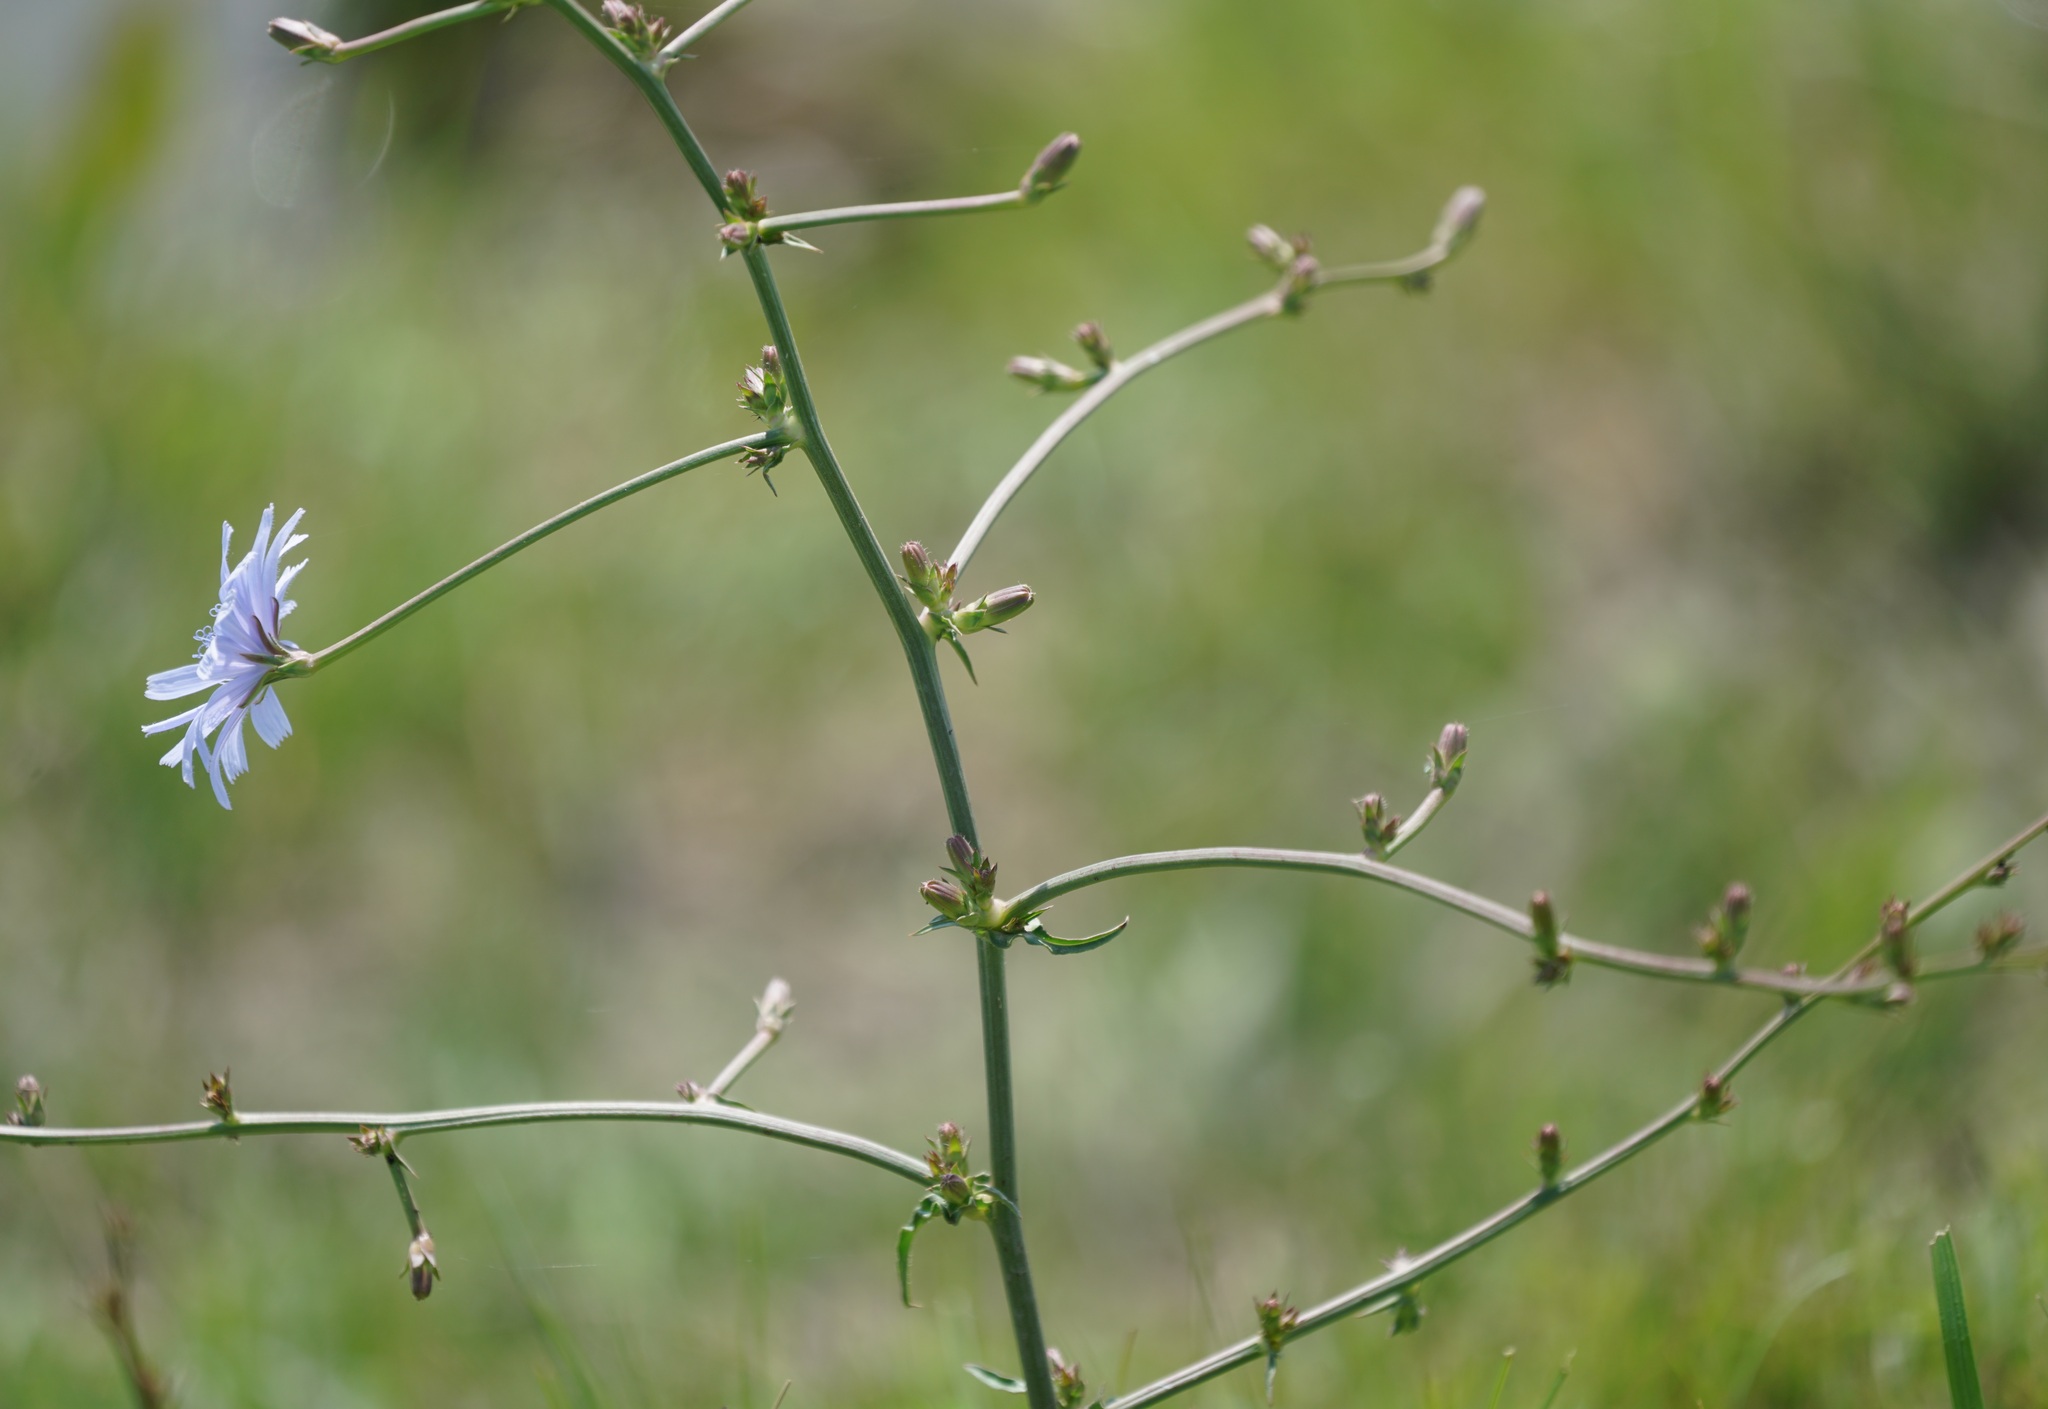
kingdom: Plantae
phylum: Tracheophyta
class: Magnoliopsida
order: Asterales
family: Asteraceae
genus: Cichorium
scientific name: Cichorium intybus
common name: Chicory
